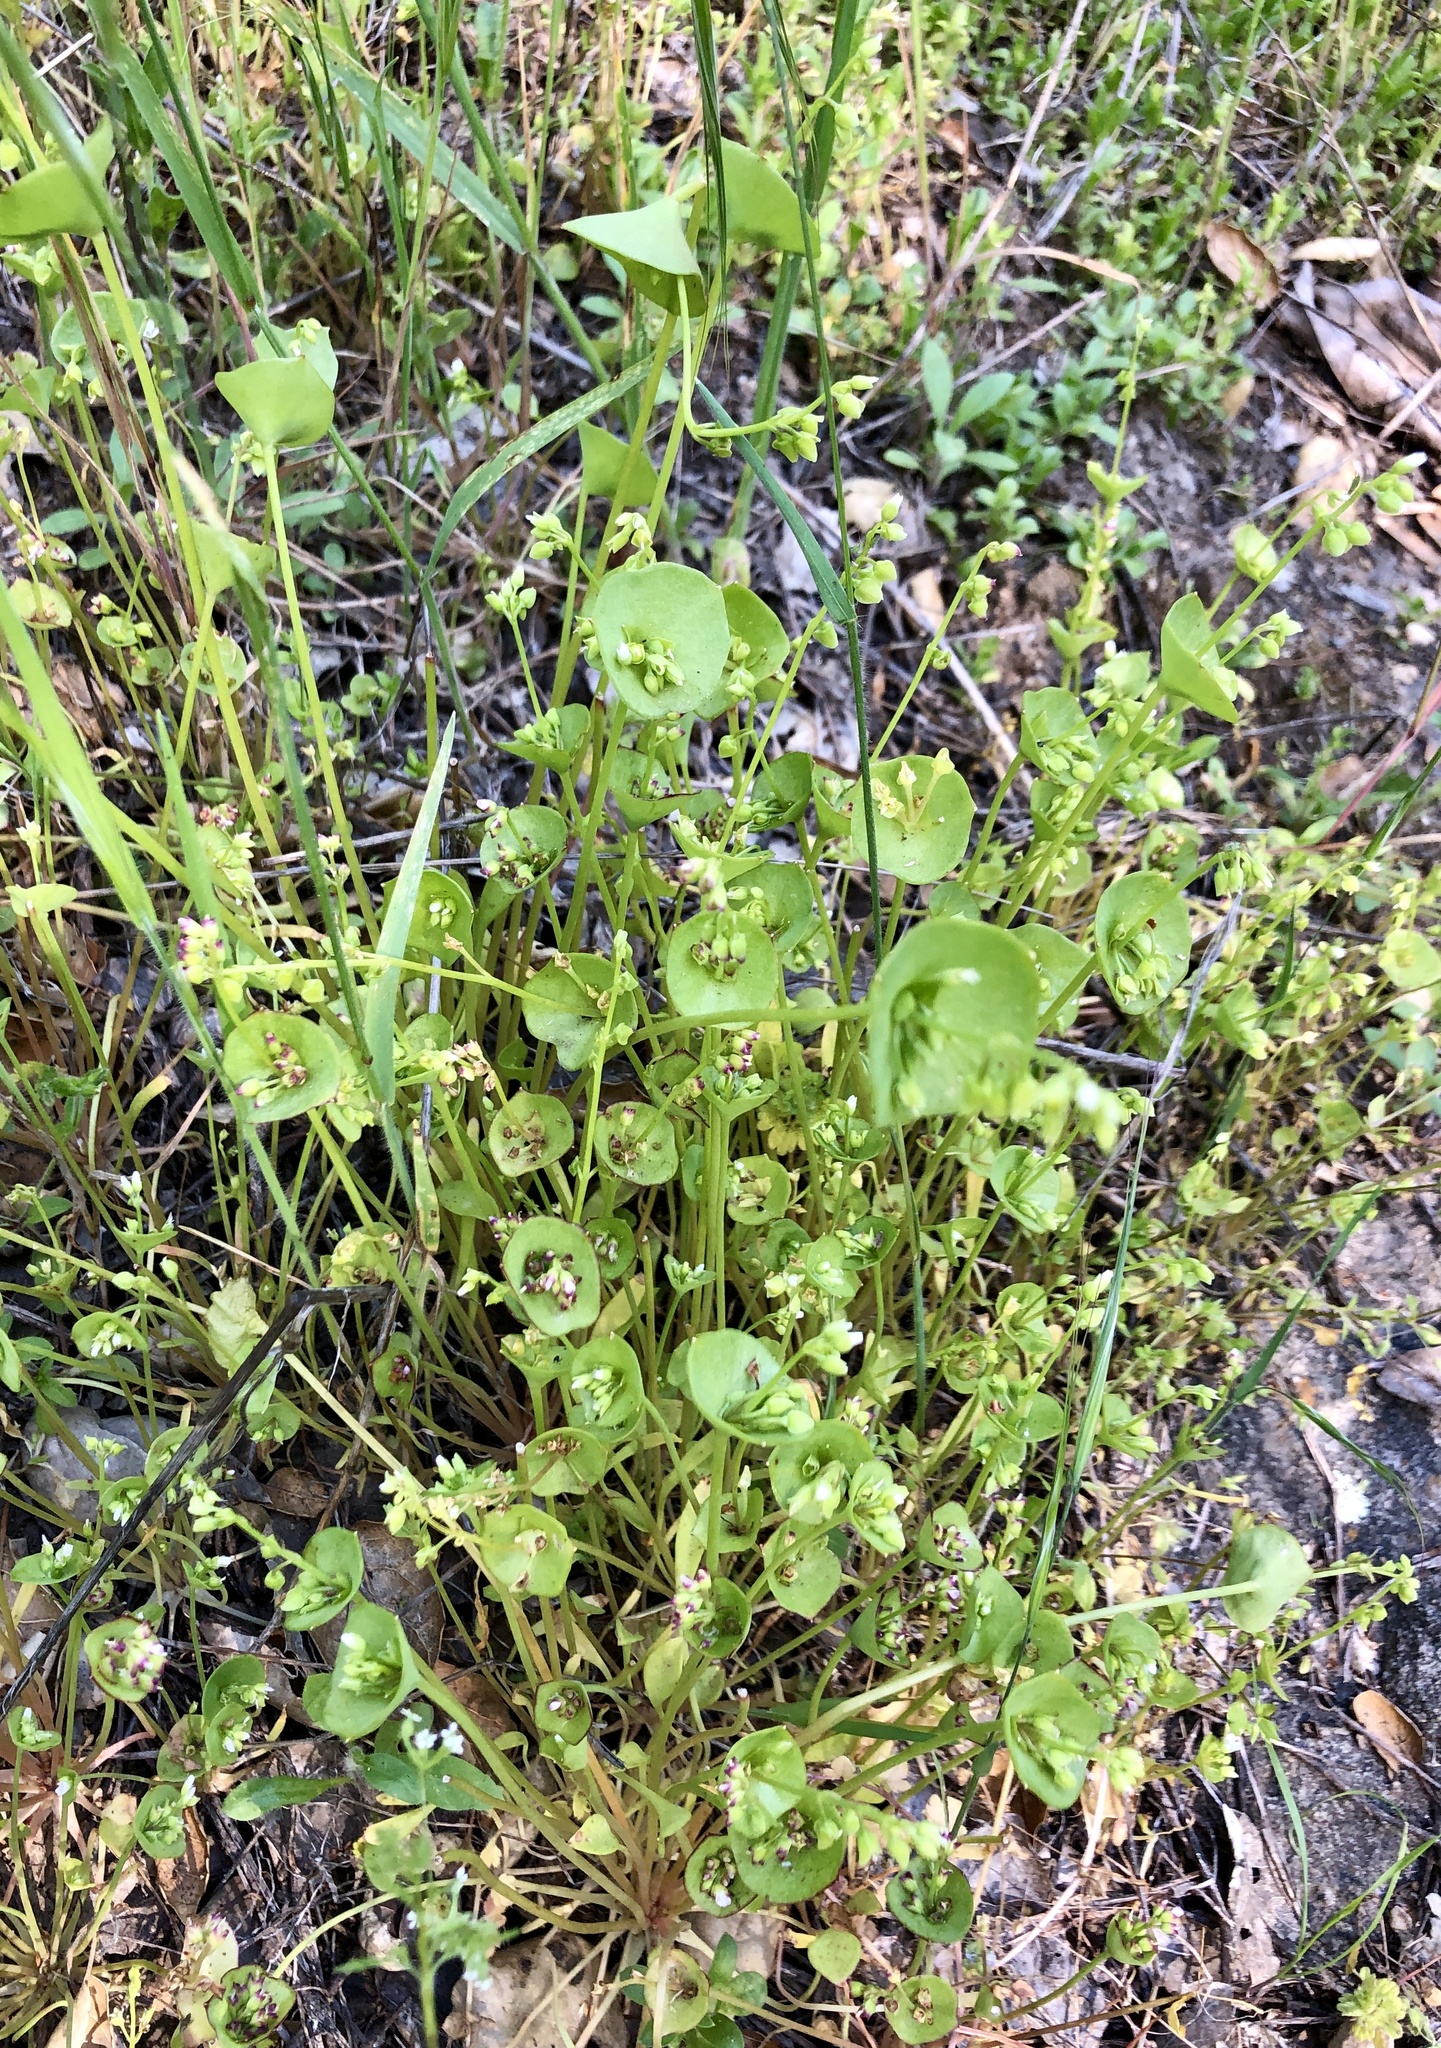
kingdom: Plantae
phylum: Tracheophyta
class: Magnoliopsida
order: Caryophyllales
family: Montiaceae
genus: Claytonia
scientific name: Claytonia perfoliata
